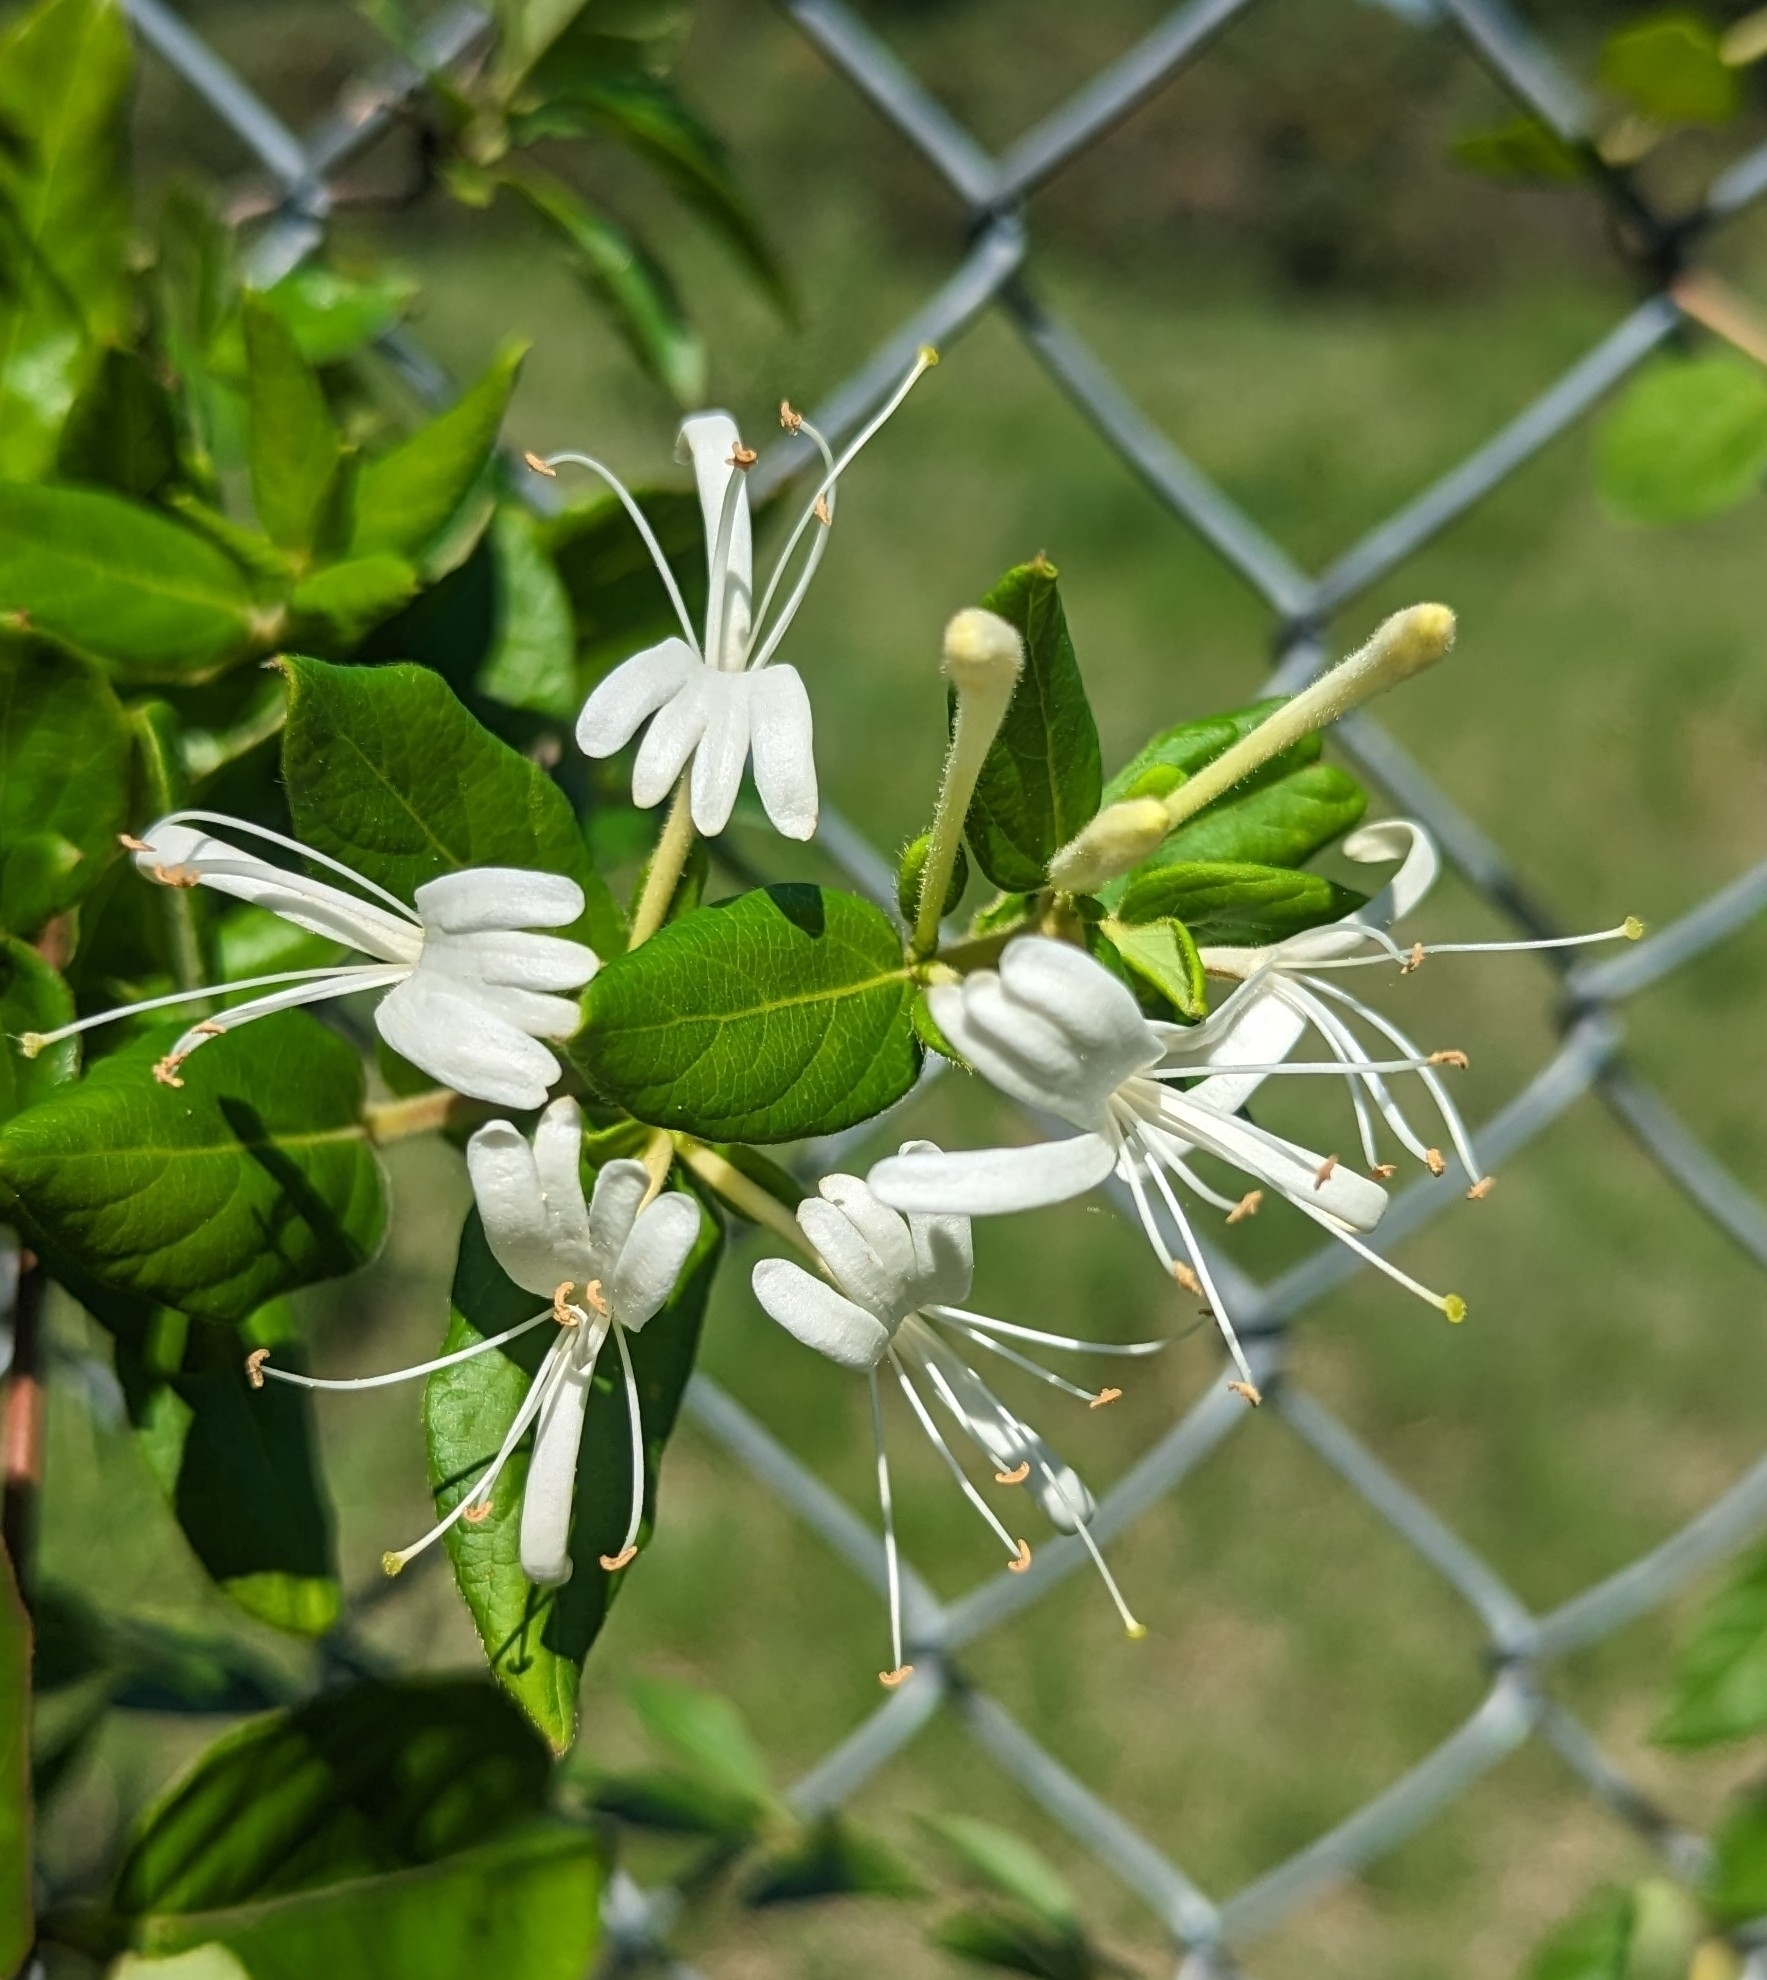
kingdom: Plantae
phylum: Tracheophyta
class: Magnoliopsida
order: Dipsacales
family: Caprifoliaceae
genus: Lonicera
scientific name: Lonicera japonica
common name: Japanese honeysuckle
